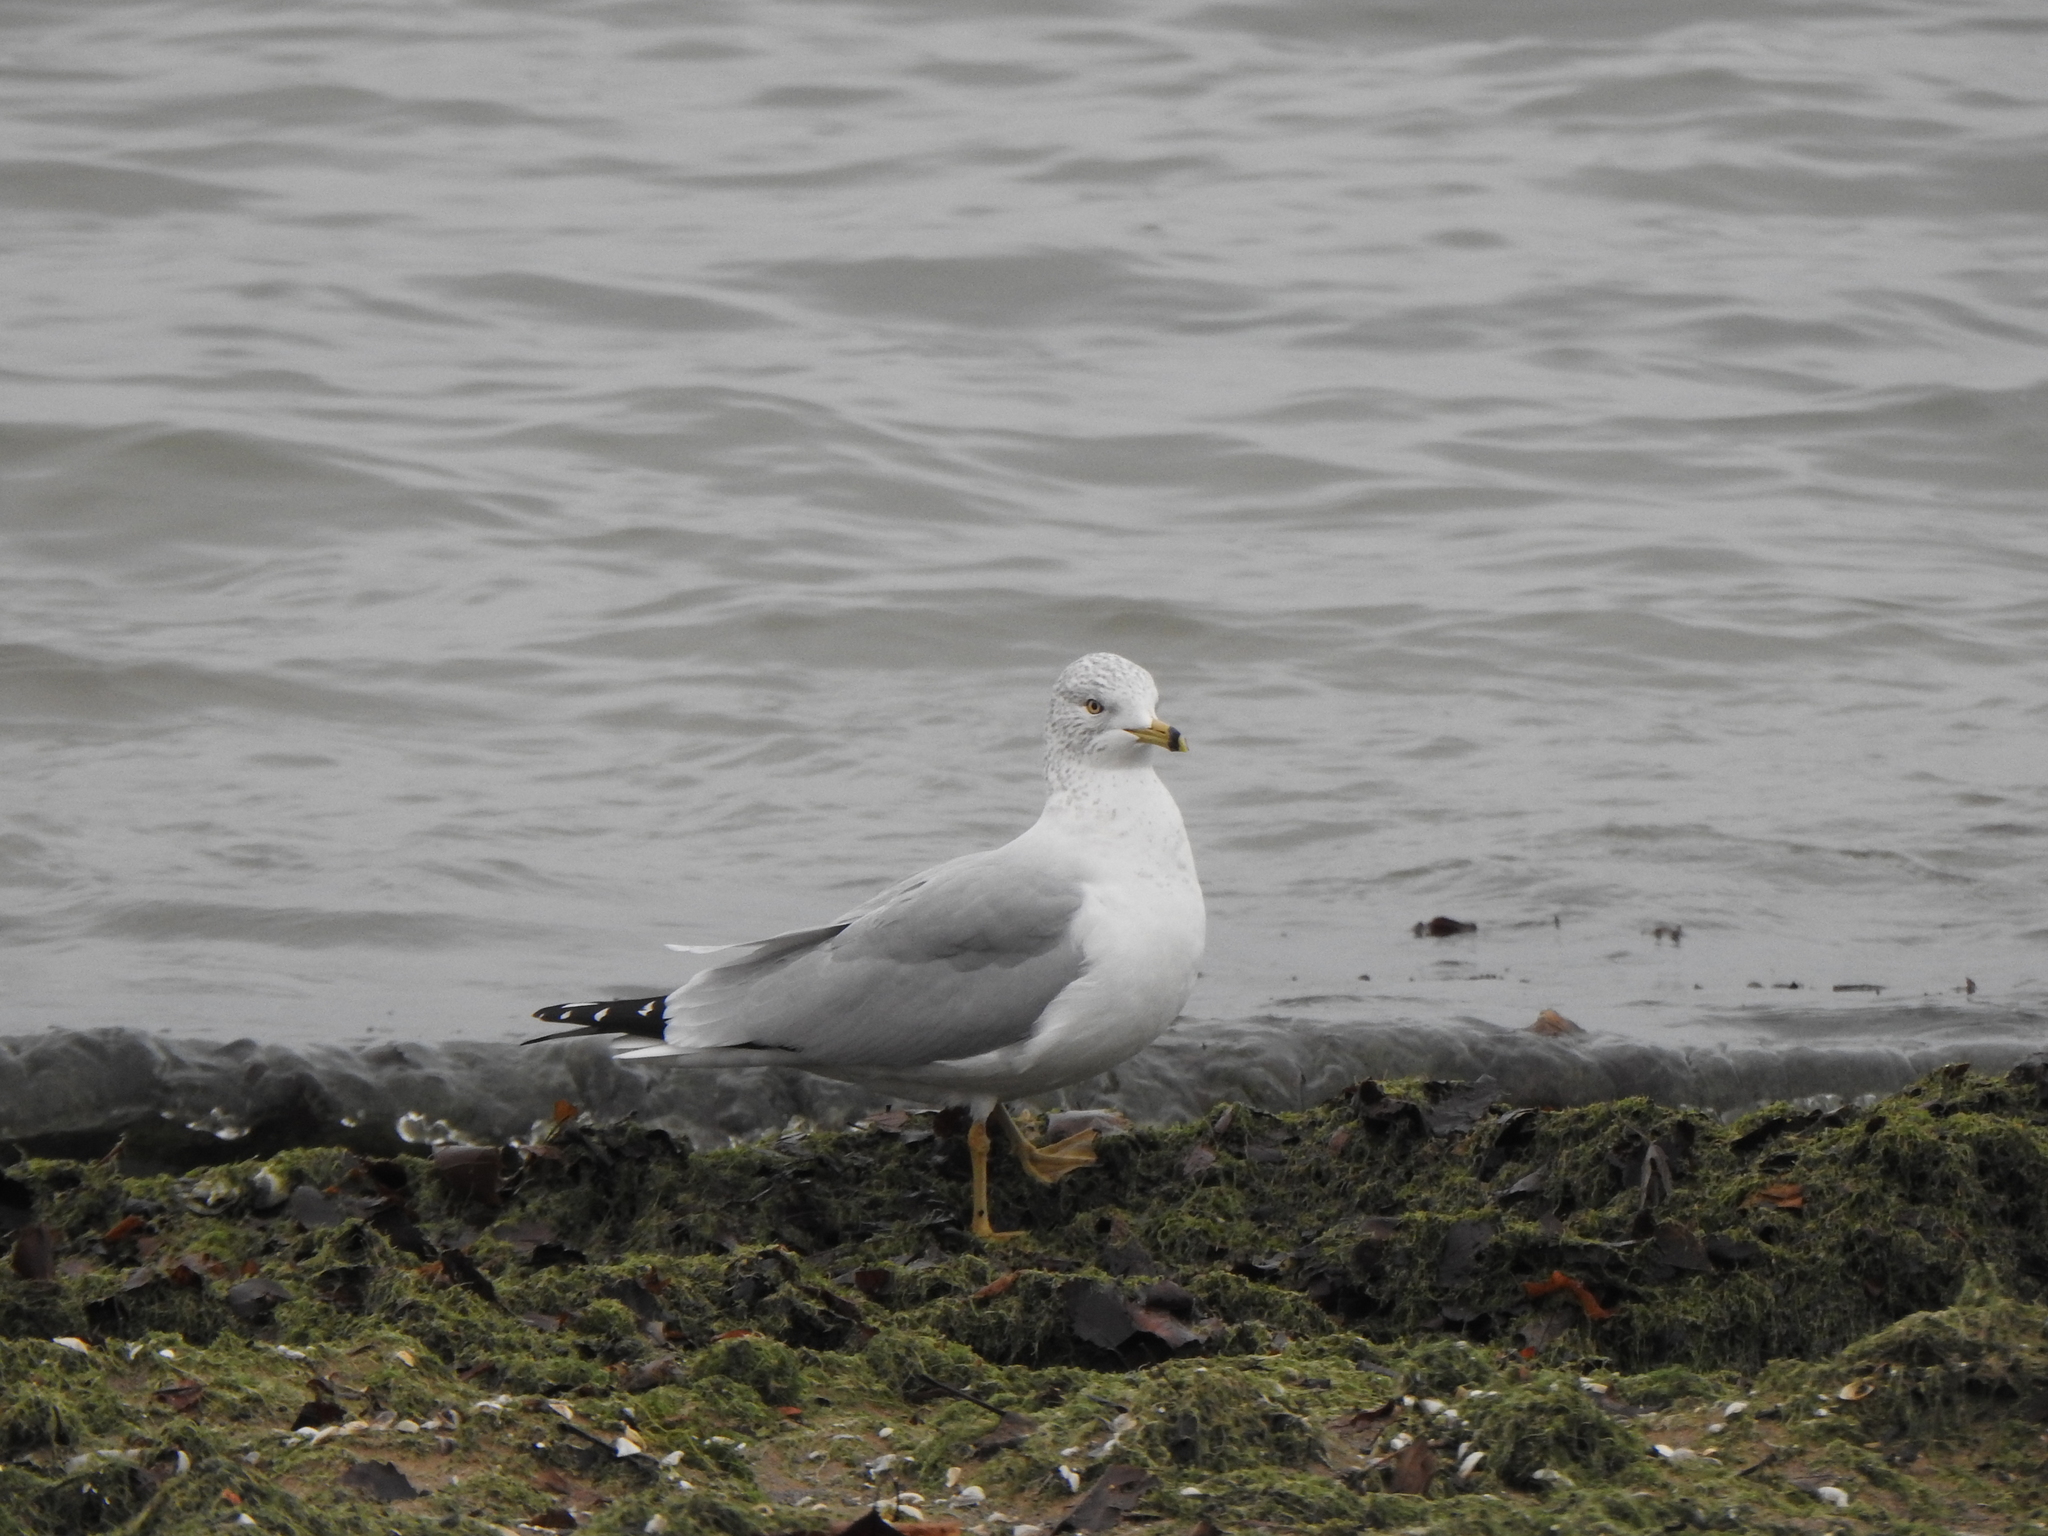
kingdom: Animalia
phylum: Chordata
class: Aves
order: Charadriiformes
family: Laridae
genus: Larus
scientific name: Larus delawarensis
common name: Ring-billed gull
